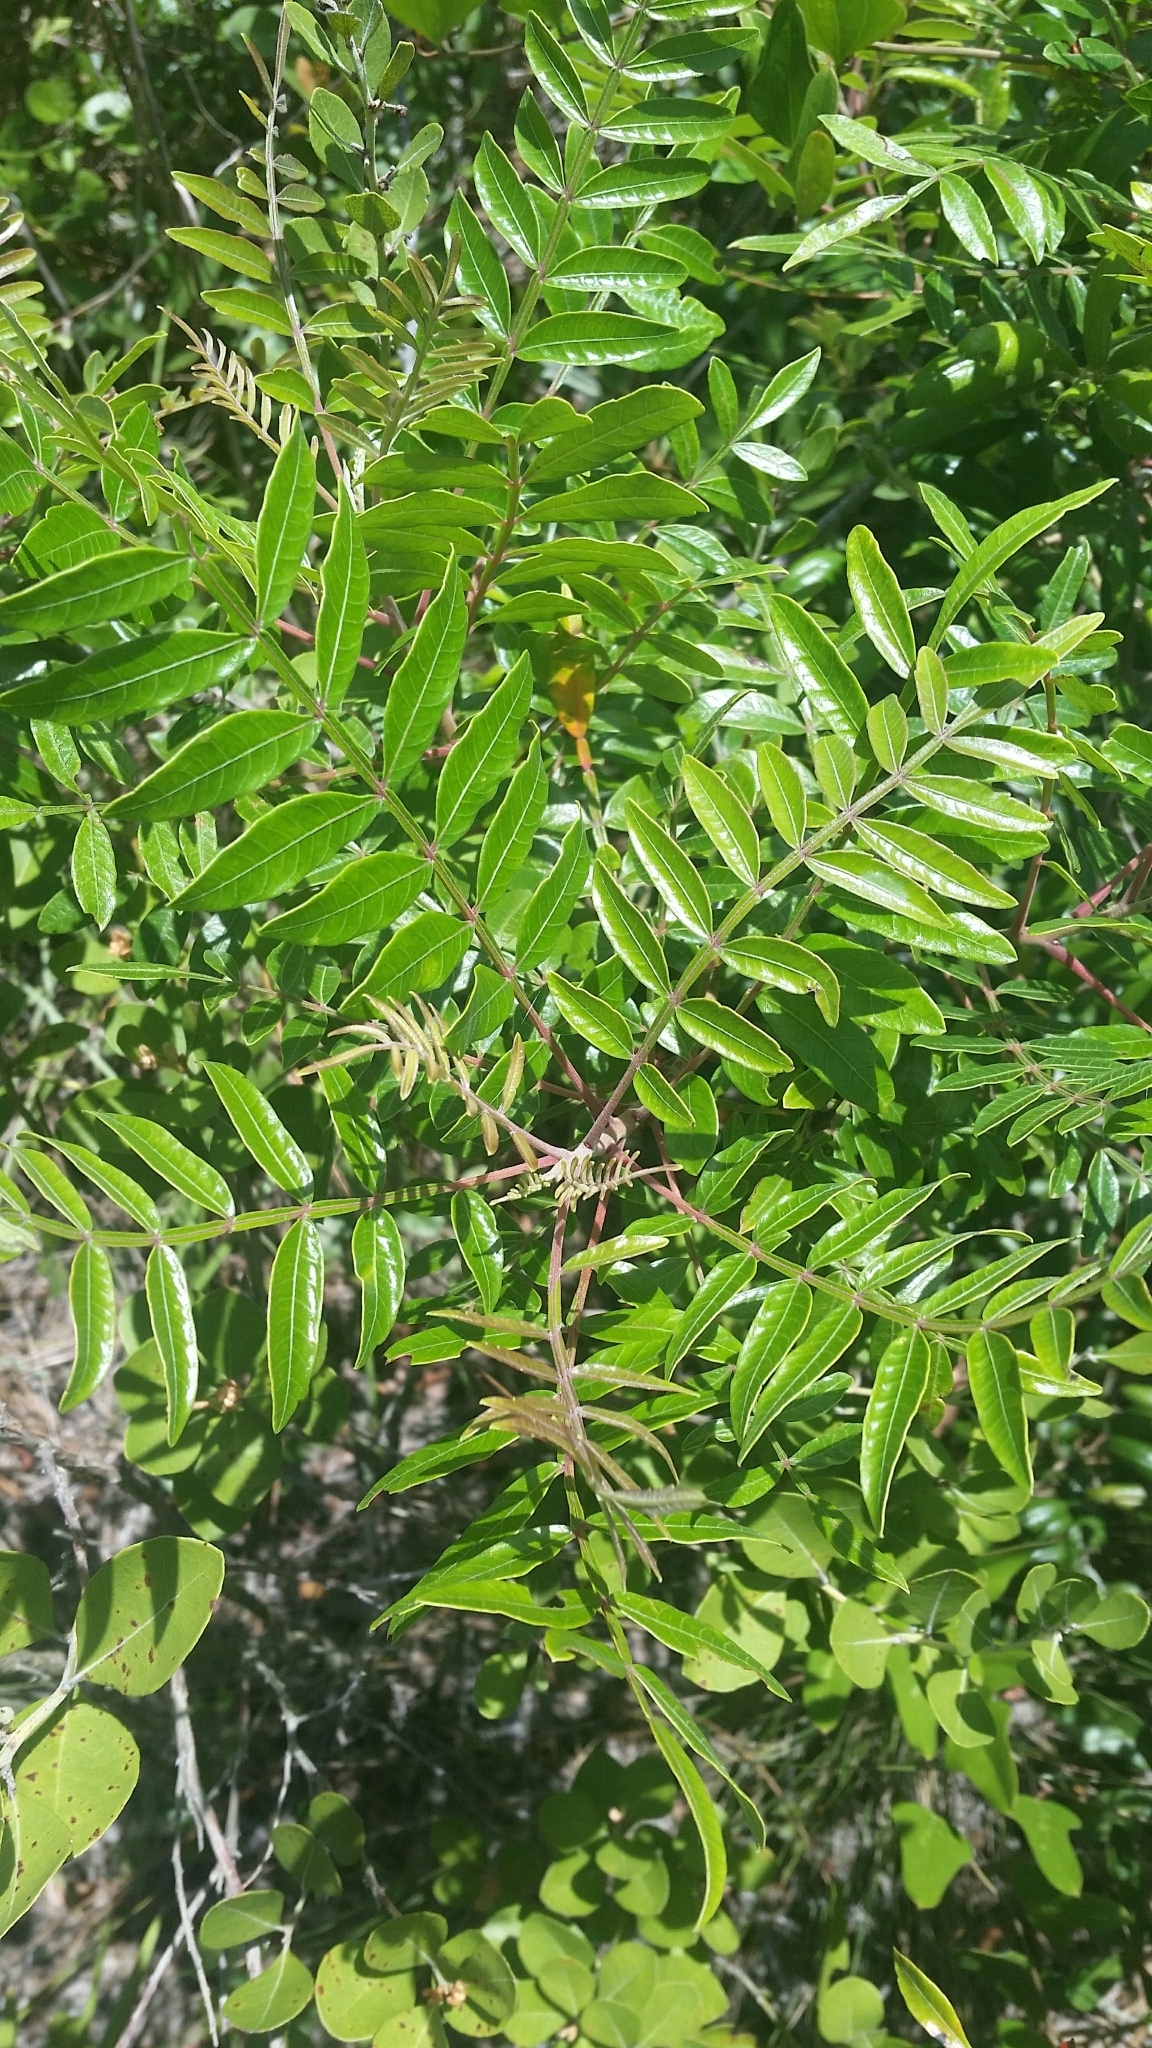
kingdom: Plantae
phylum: Tracheophyta
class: Magnoliopsida
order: Sapindales
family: Anacardiaceae
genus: Rhus
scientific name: Rhus copallina
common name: Shining sumac
